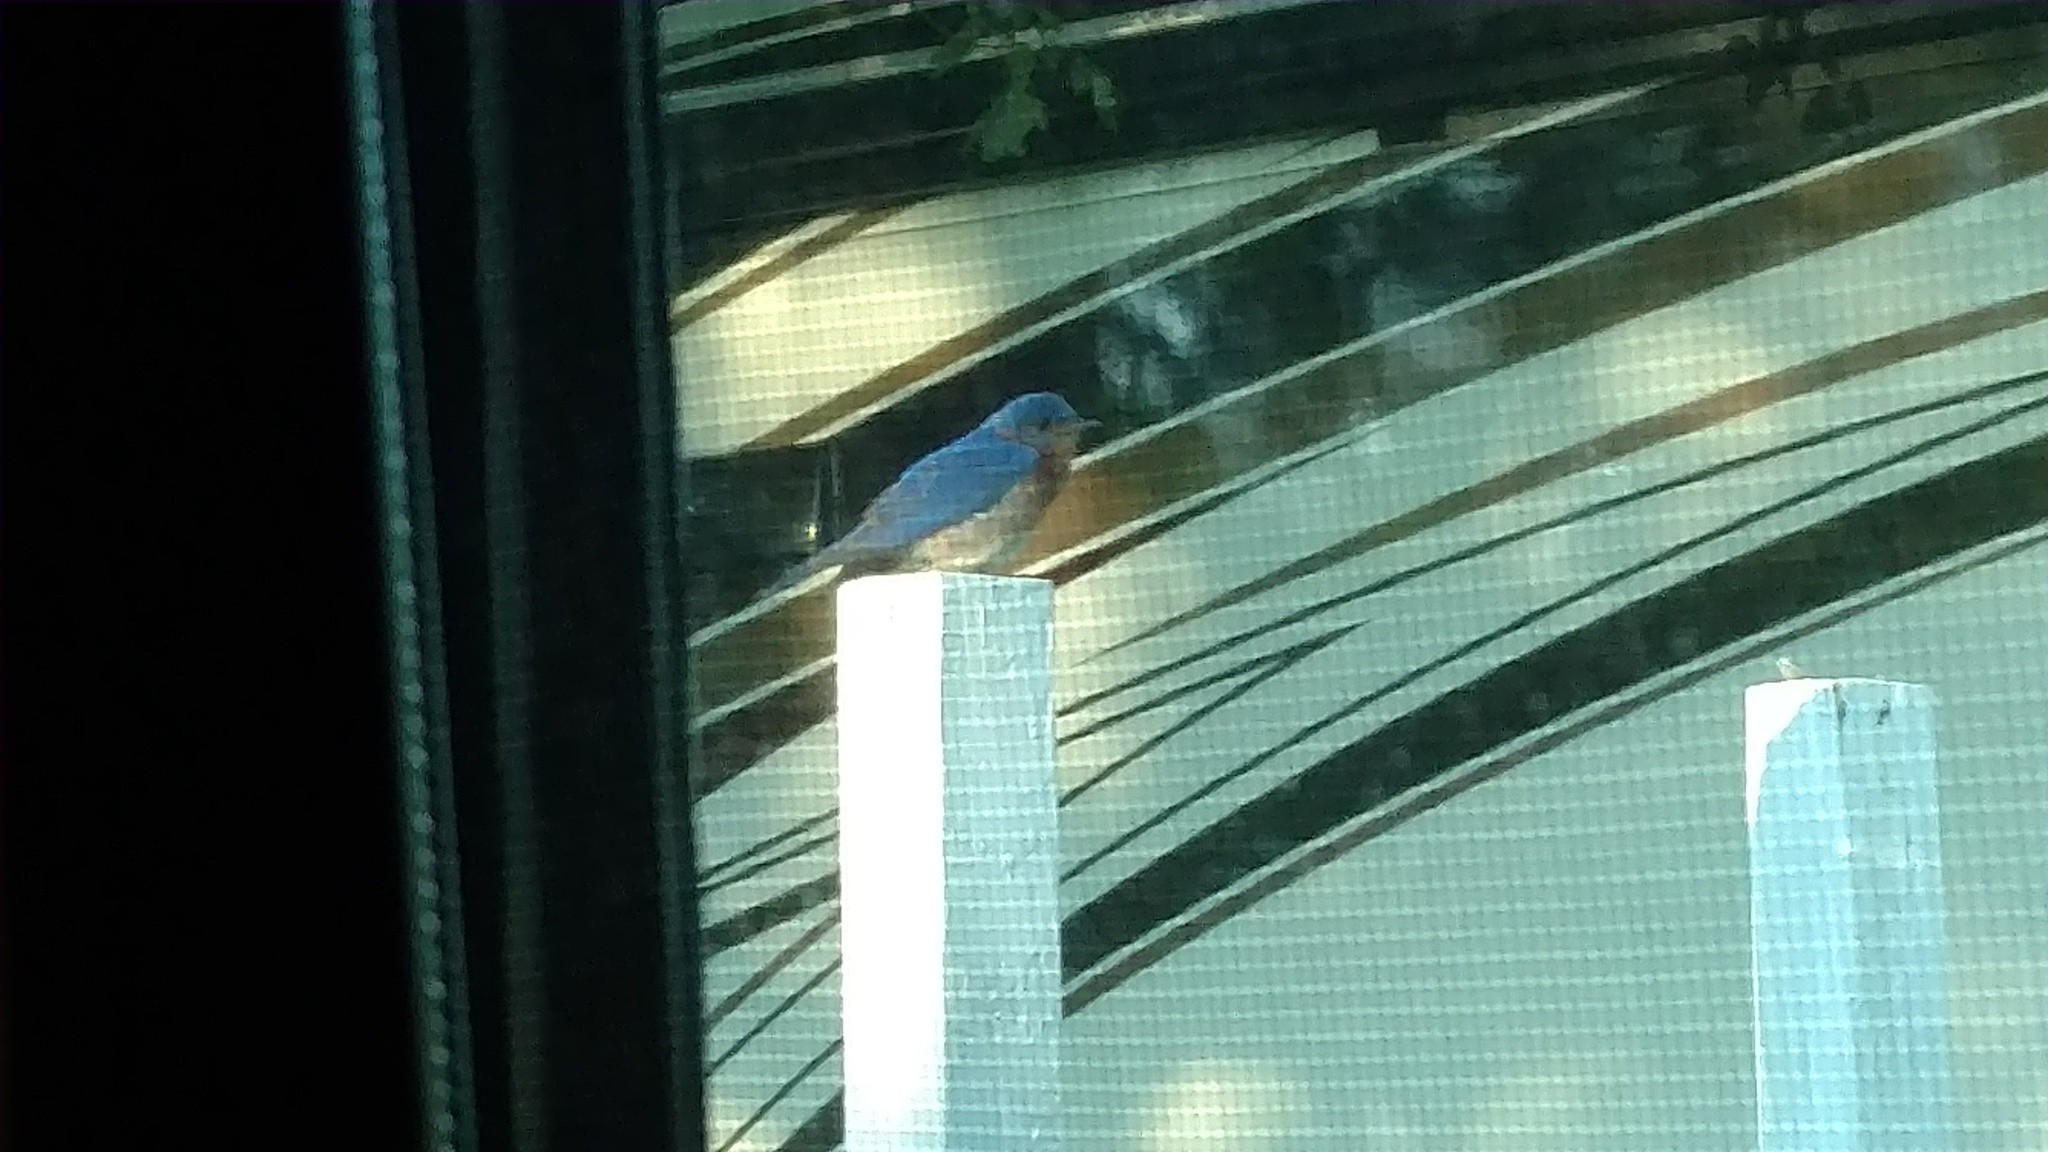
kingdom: Animalia
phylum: Chordata
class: Aves
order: Passeriformes
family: Turdidae
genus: Sialia
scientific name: Sialia sialis
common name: Eastern bluebird
